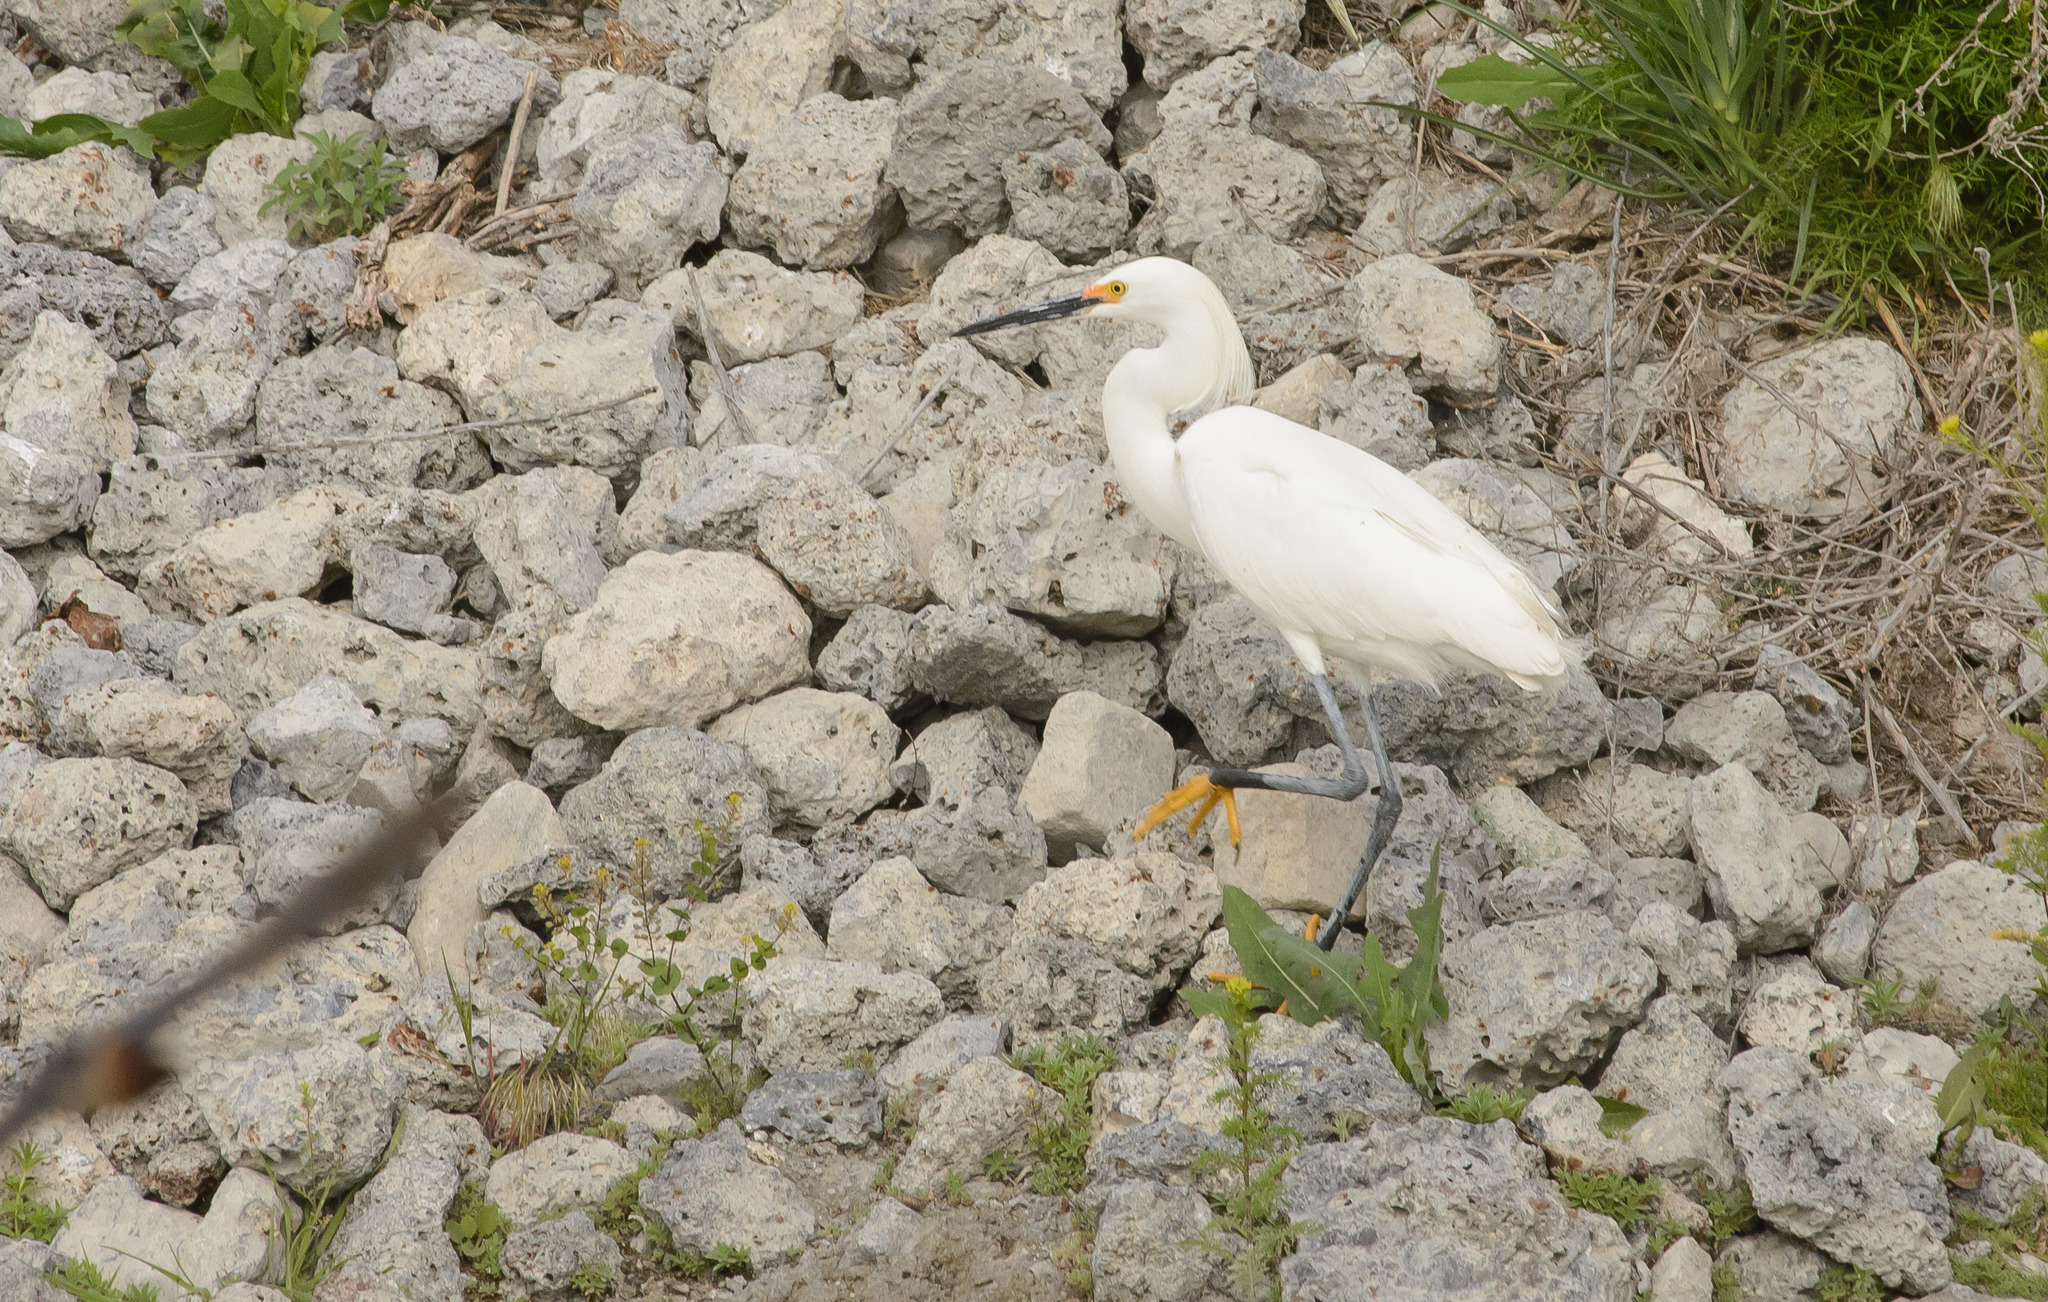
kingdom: Animalia
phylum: Chordata
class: Aves
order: Pelecaniformes
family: Ardeidae
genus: Egretta
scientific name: Egretta thula
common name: Snowy egret
